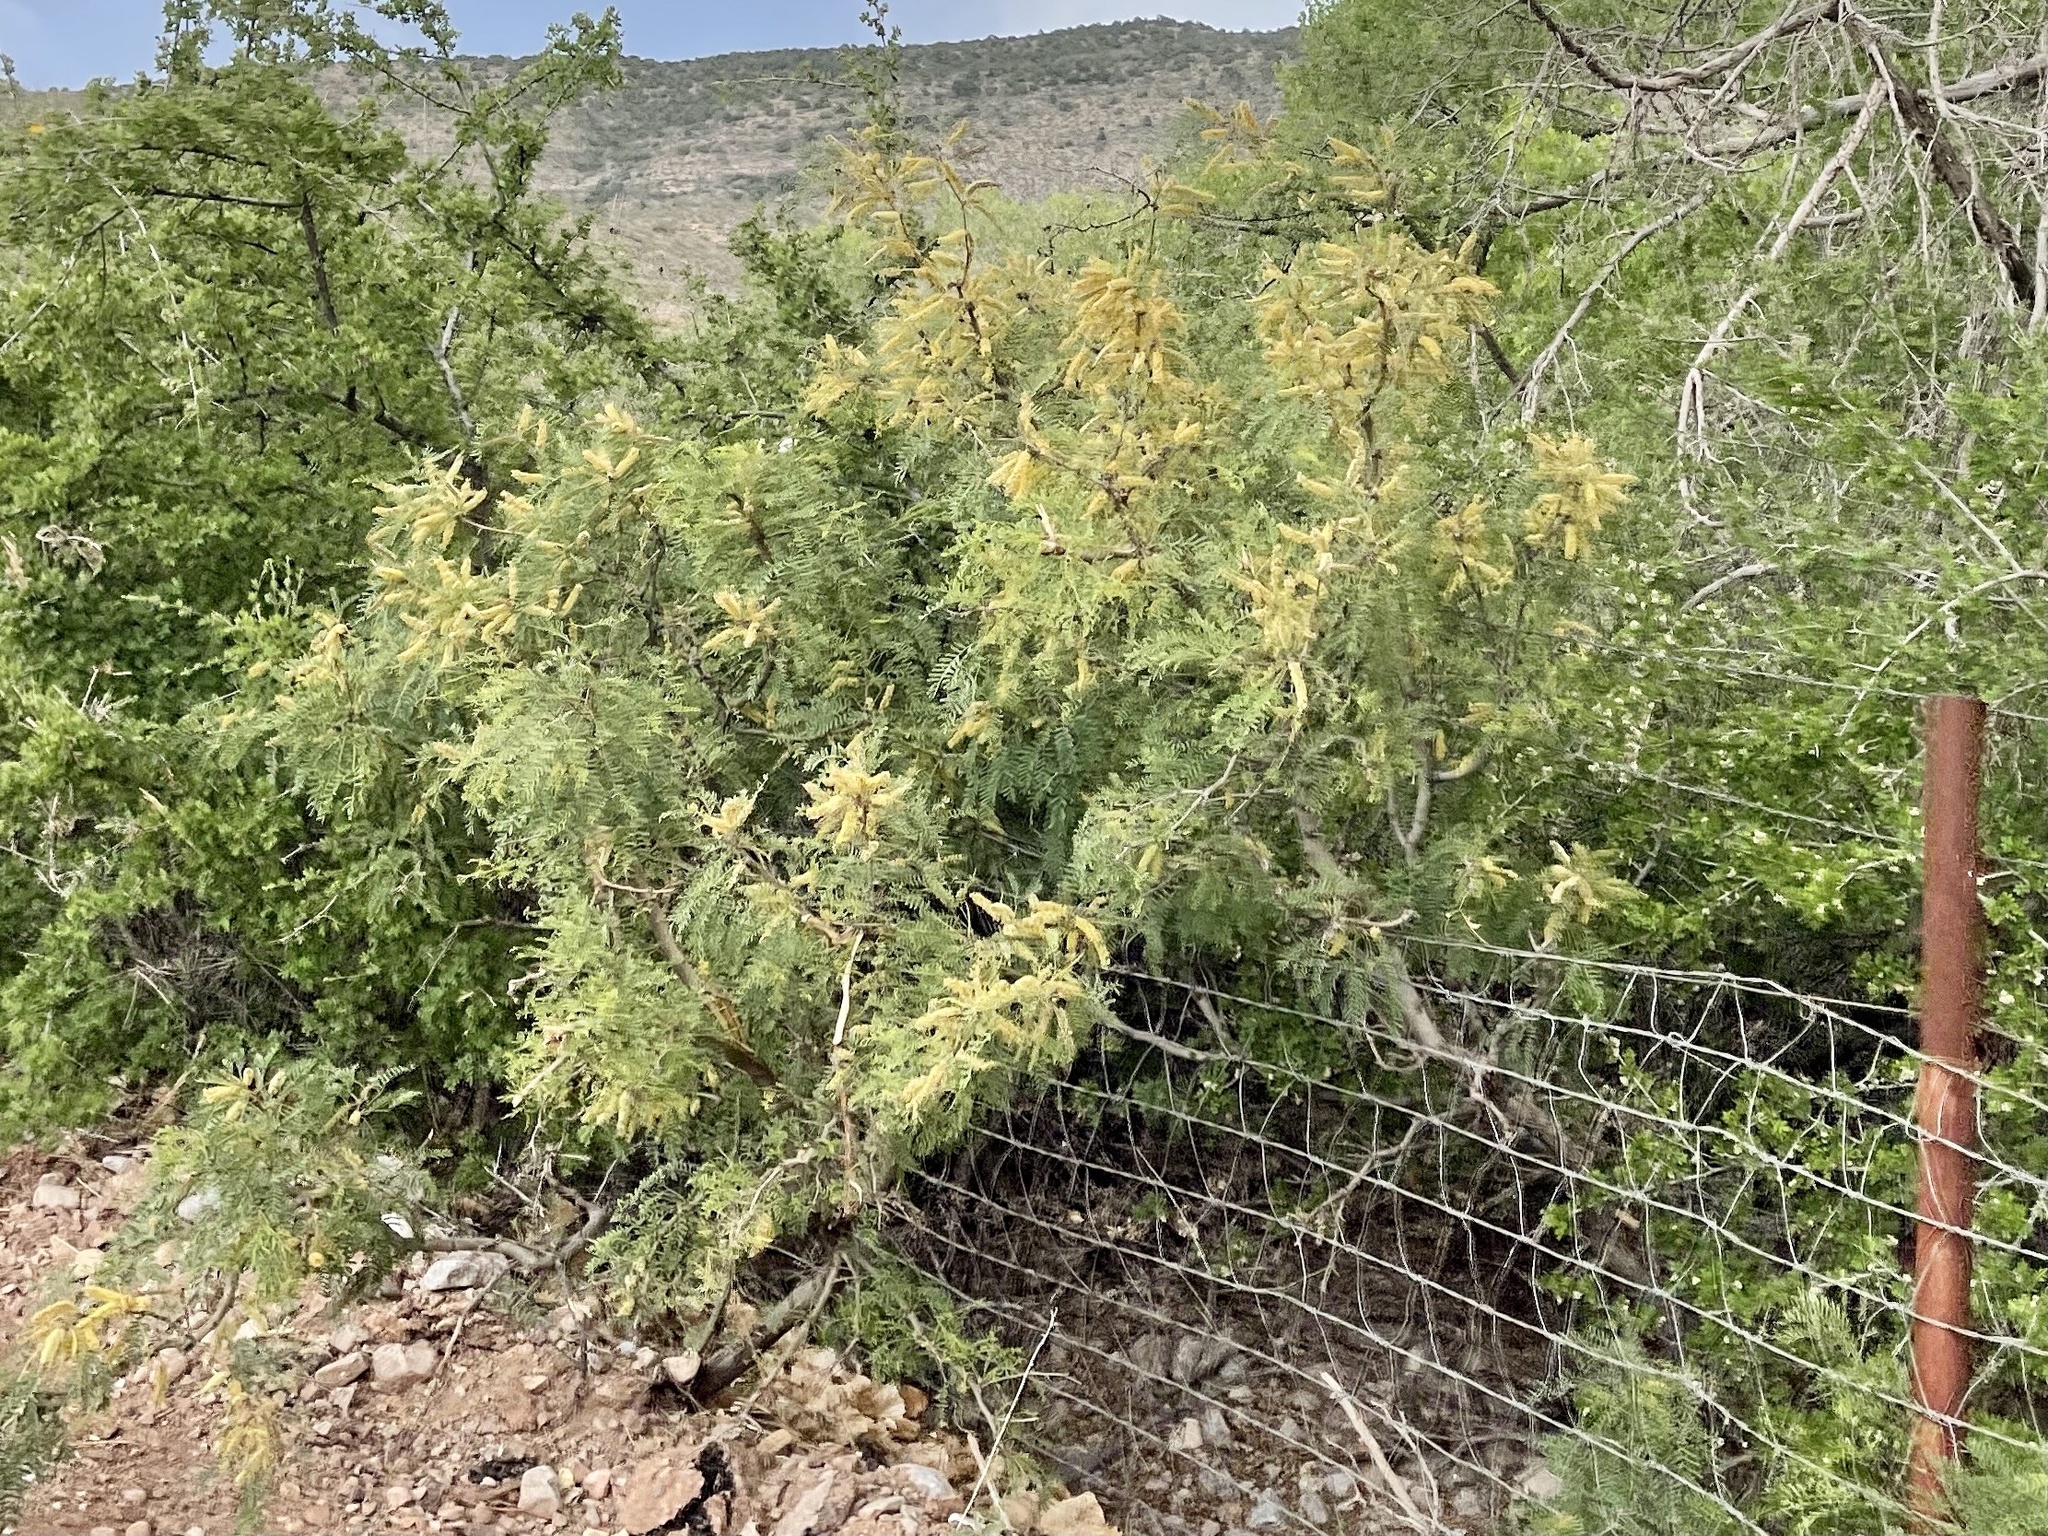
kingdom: Plantae
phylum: Tracheophyta
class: Magnoliopsida
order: Fabales
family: Fabaceae
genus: Prosopis
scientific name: Prosopis glandulosa
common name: Honey mesquite
